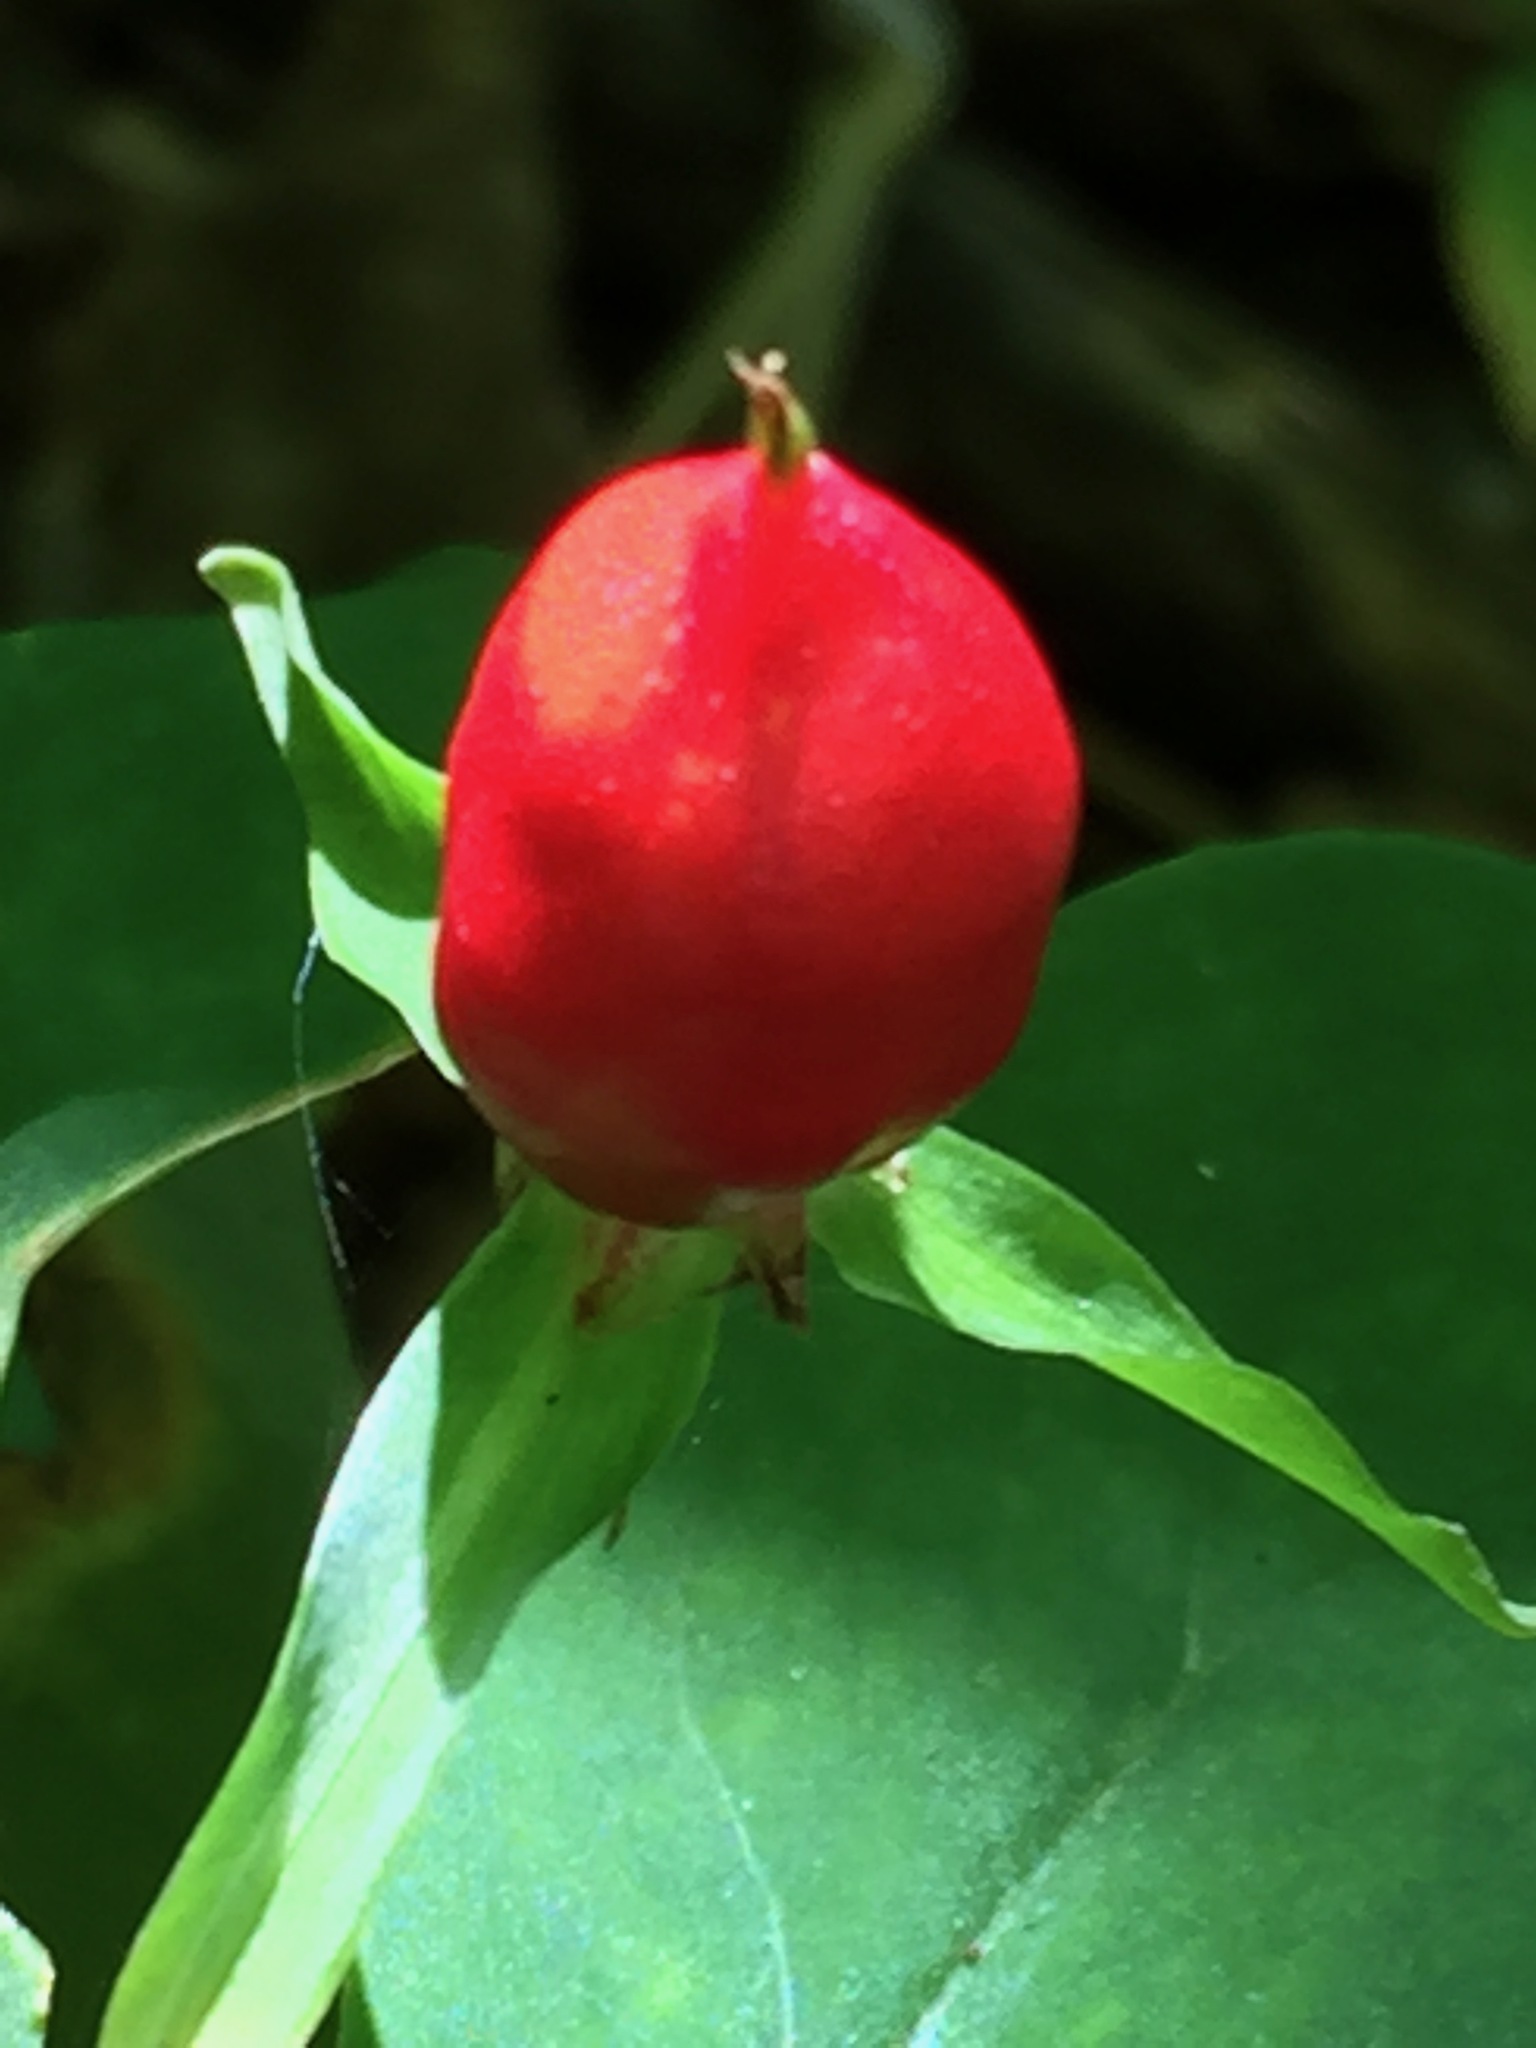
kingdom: Plantae
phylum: Tracheophyta
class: Liliopsida
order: Liliales
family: Melanthiaceae
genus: Trillium
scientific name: Trillium undulatum
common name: Paint trillium
